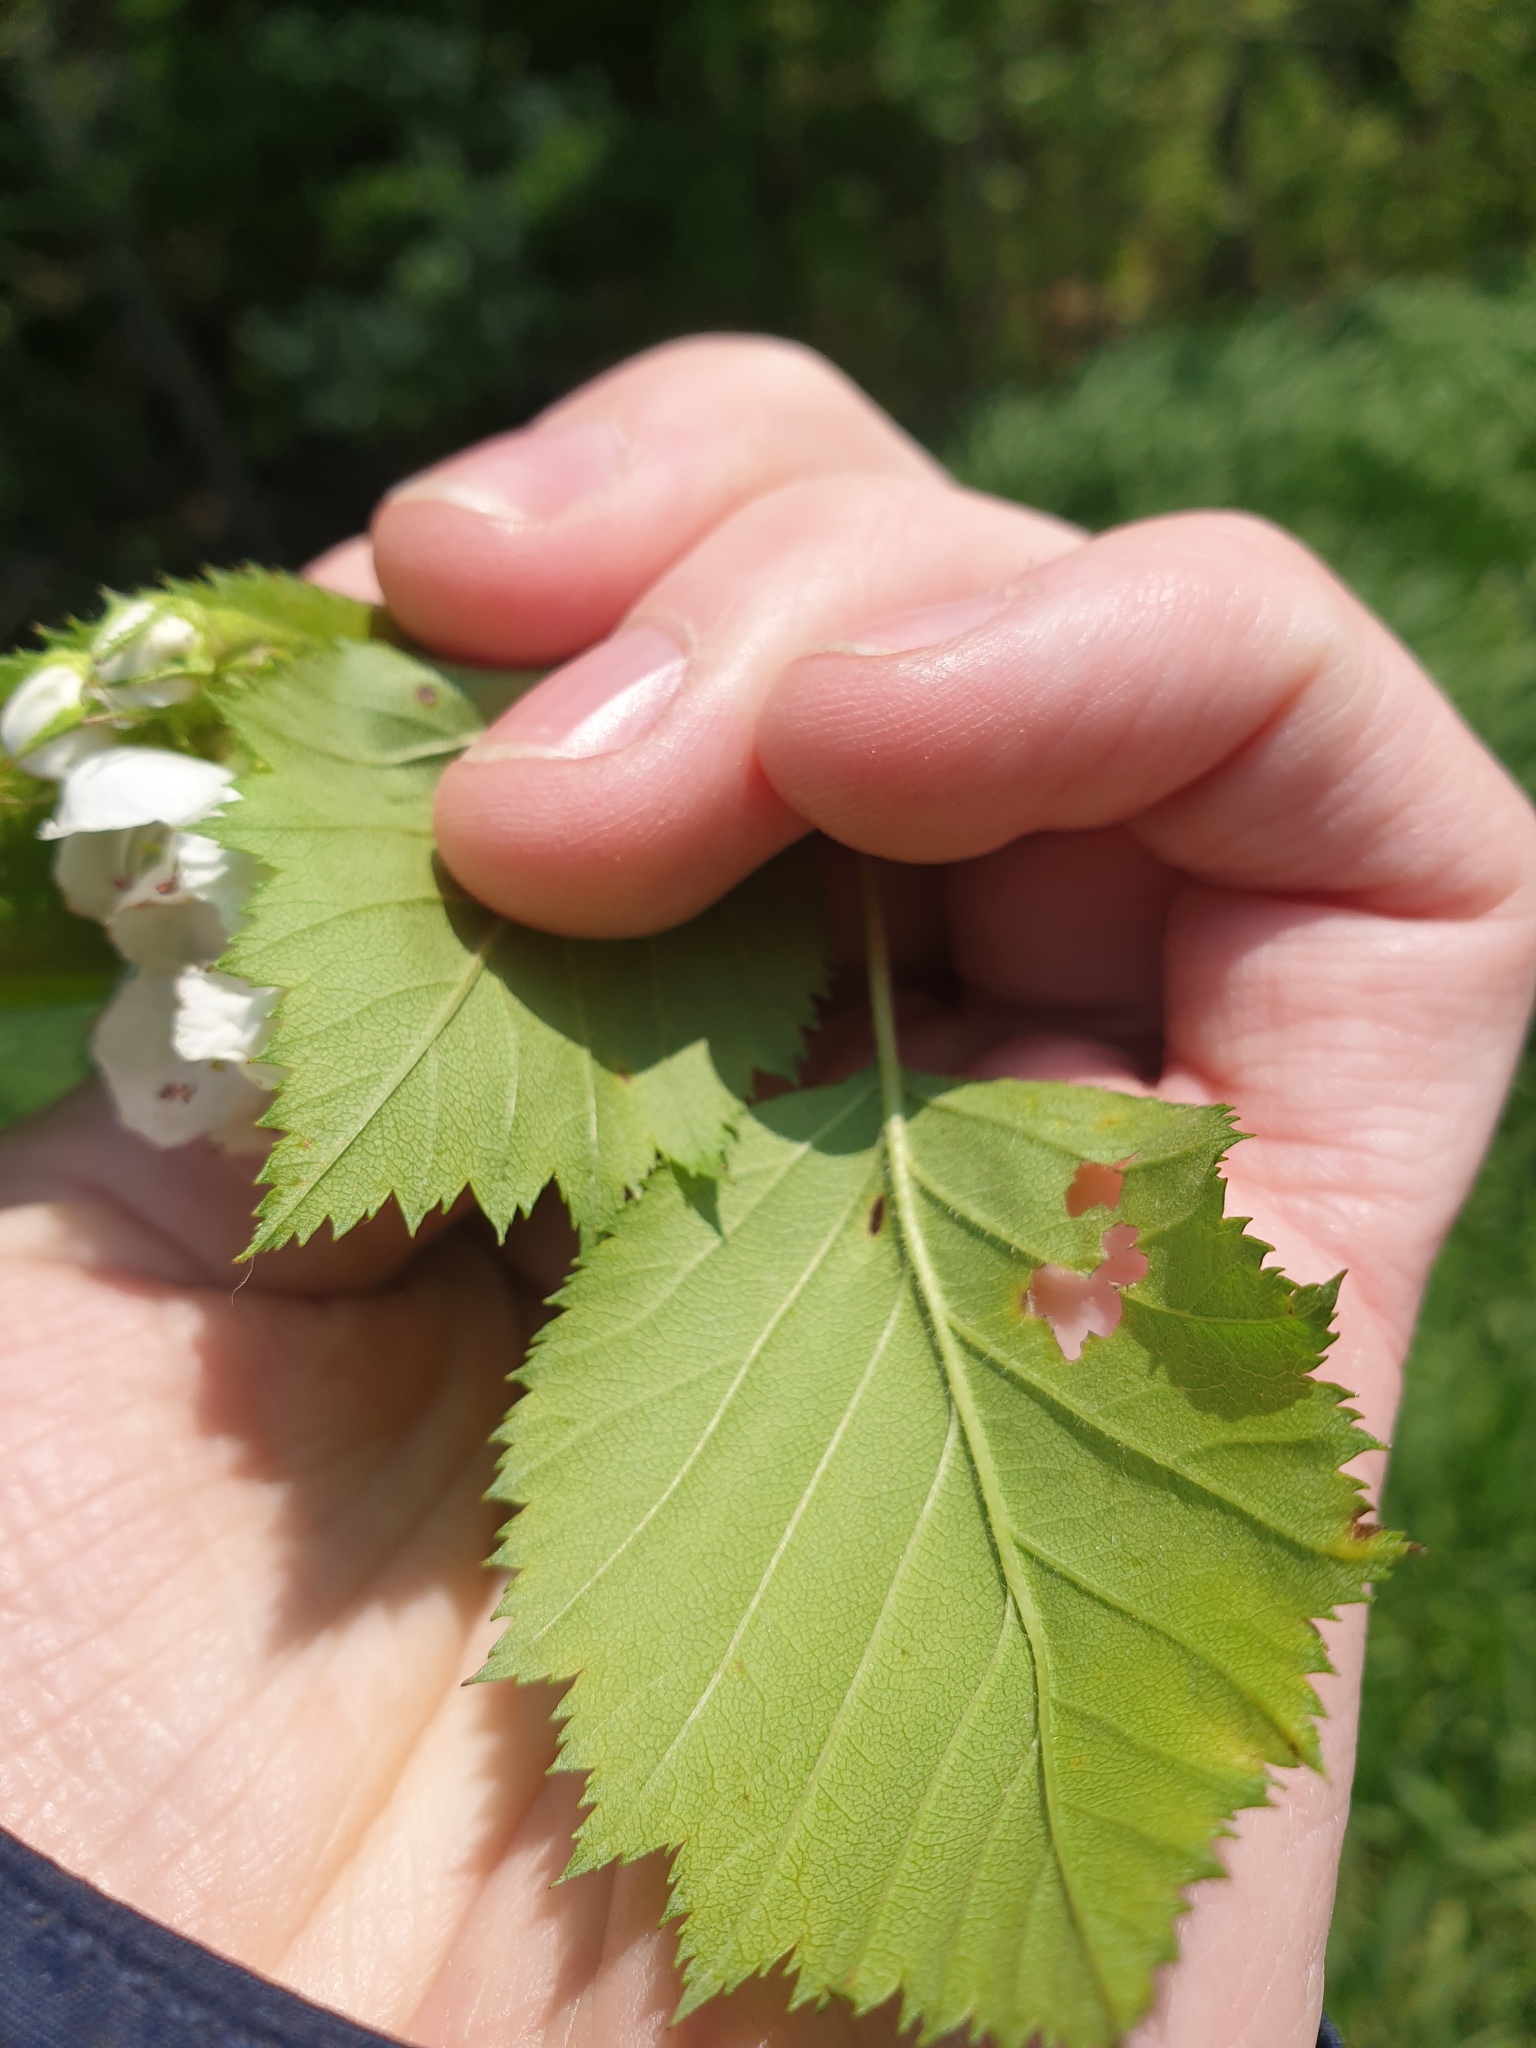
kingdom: Plantae
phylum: Tracheophyta
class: Magnoliopsida
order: Rosales
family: Rosaceae
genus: Crataegus
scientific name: Crataegus coccinea
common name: Scarlet hawthorn
